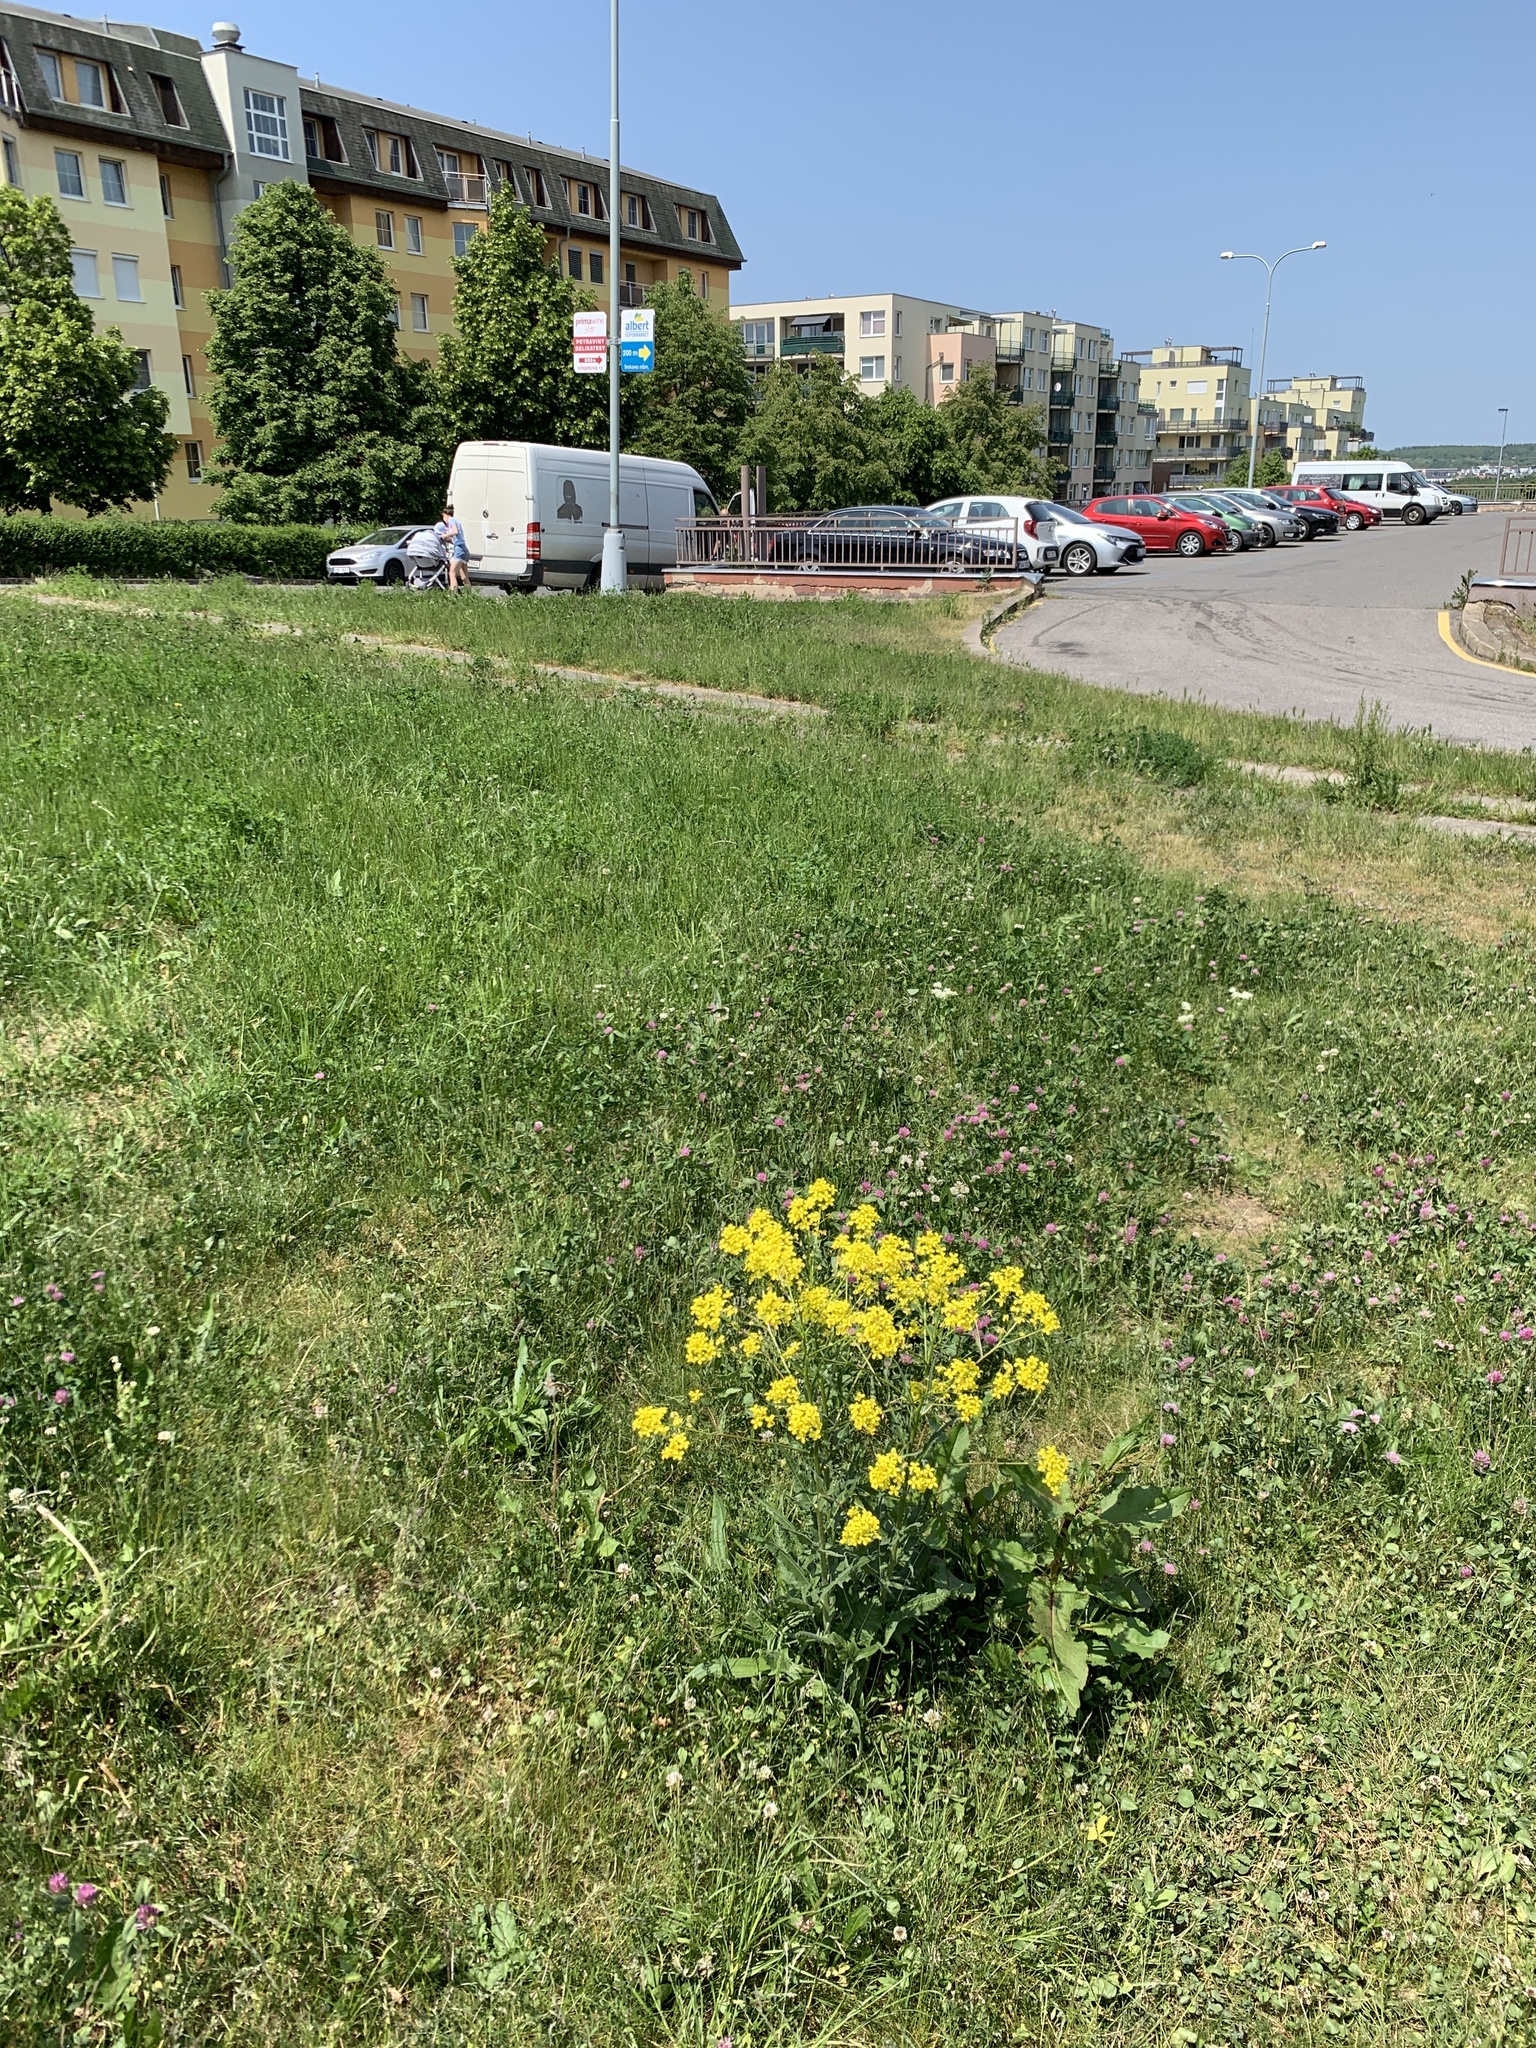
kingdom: Plantae
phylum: Tracheophyta
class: Magnoliopsida
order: Brassicales
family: Brassicaceae
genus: Bunias
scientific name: Bunias orientalis
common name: Warty-cabbage
